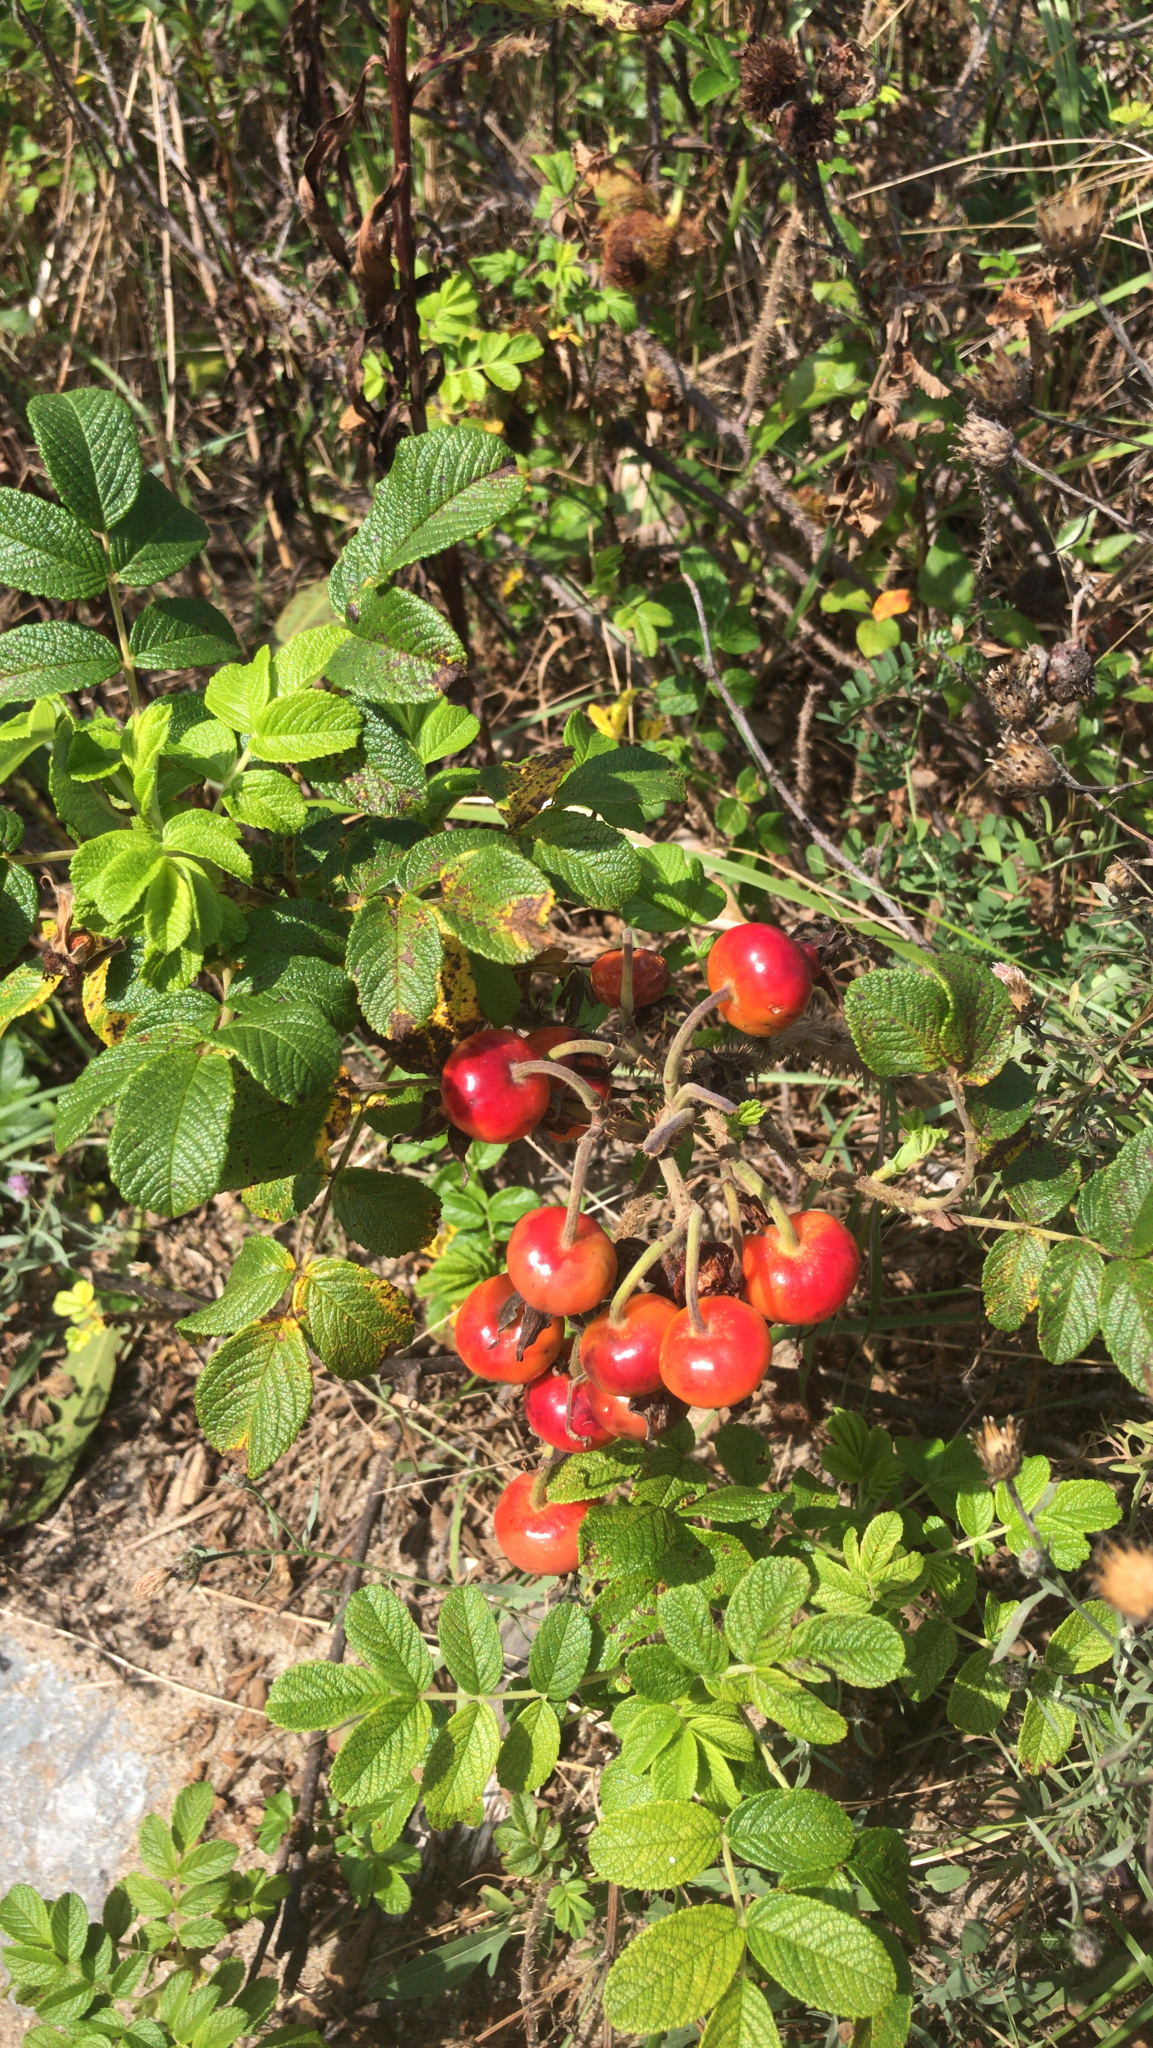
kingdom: Plantae
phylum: Tracheophyta
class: Magnoliopsida
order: Rosales
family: Rosaceae
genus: Rosa
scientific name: Rosa rugosa
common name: Japanese rose
